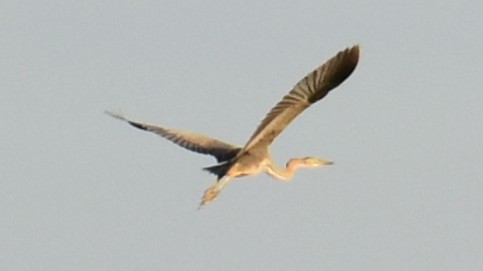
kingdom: Animalia
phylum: Chordata
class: Aves
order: Pelecaniformes
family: Ardeidae
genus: Ardea
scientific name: Ardea purpurea
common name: Purple heron
